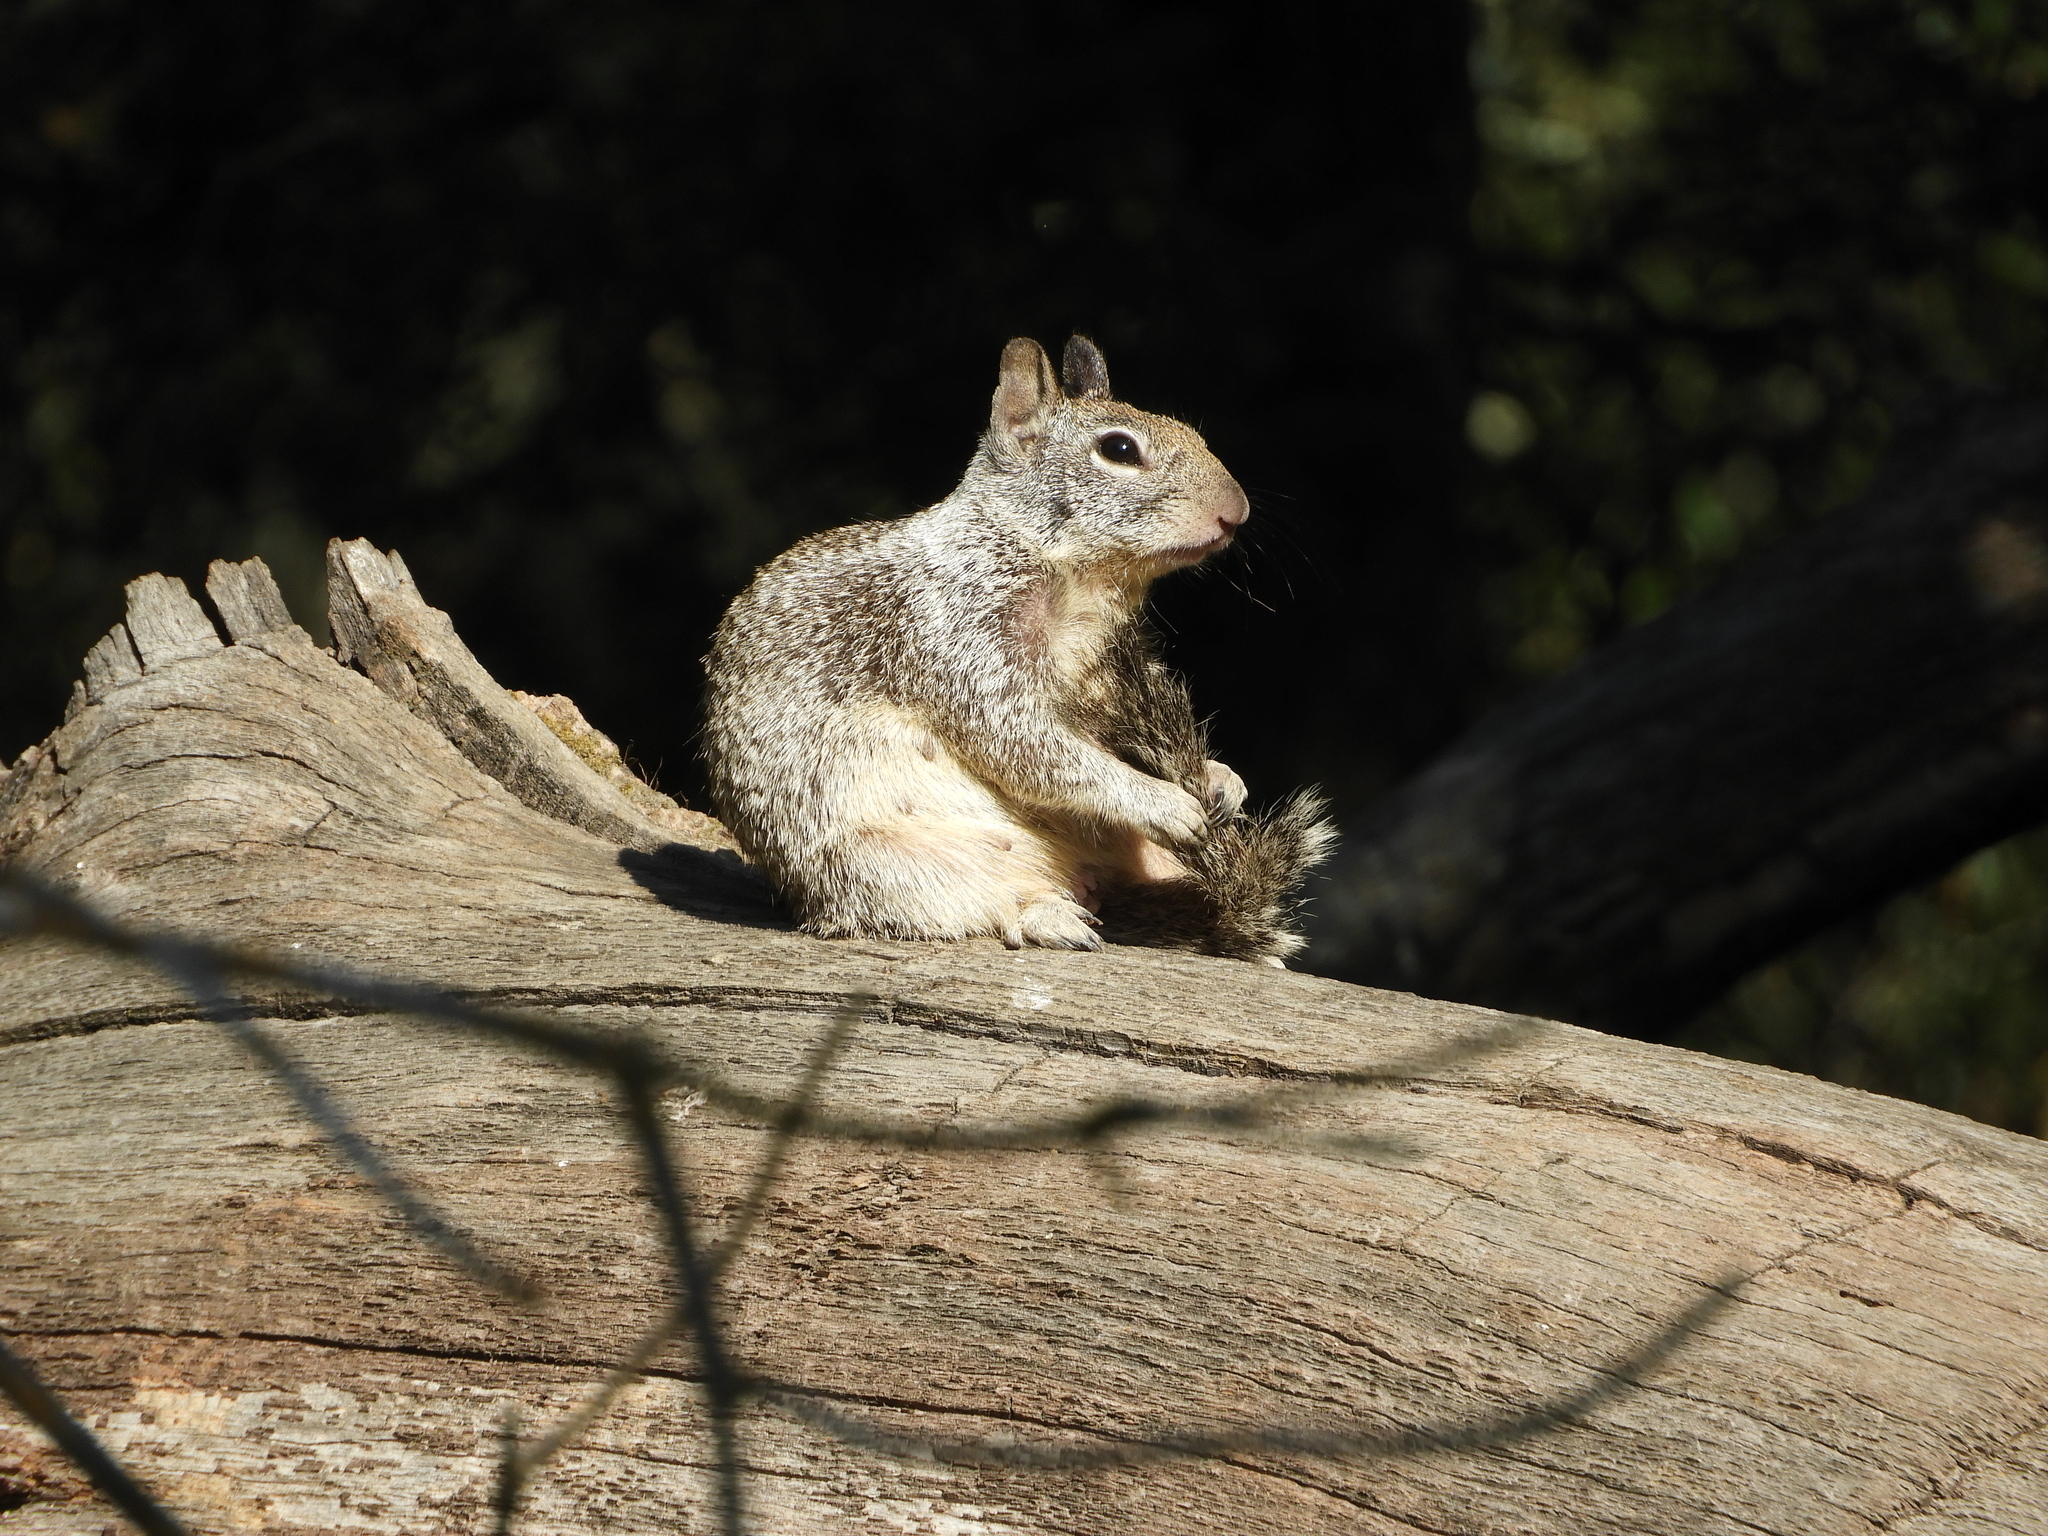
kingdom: Animalia
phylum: Chordata
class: Mammalia
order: Rodentia
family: Sciuridae
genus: Otospermophilus
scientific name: Otospermophilus beecheyi
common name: California ground squirrel
